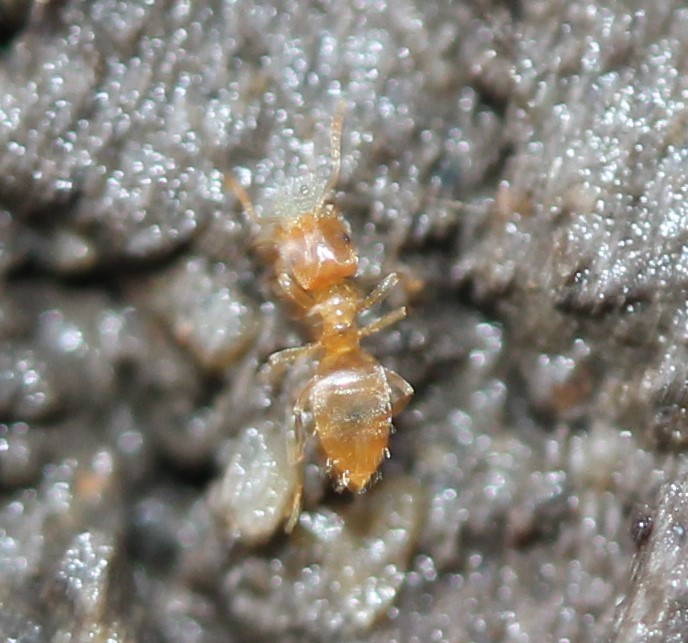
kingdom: Animalia
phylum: Arthropoda
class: Insecta
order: Hymenoptera
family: Formicidae
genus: Brachymyrmex
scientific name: Brachymyrmex depilis
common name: Hairless rover ant
